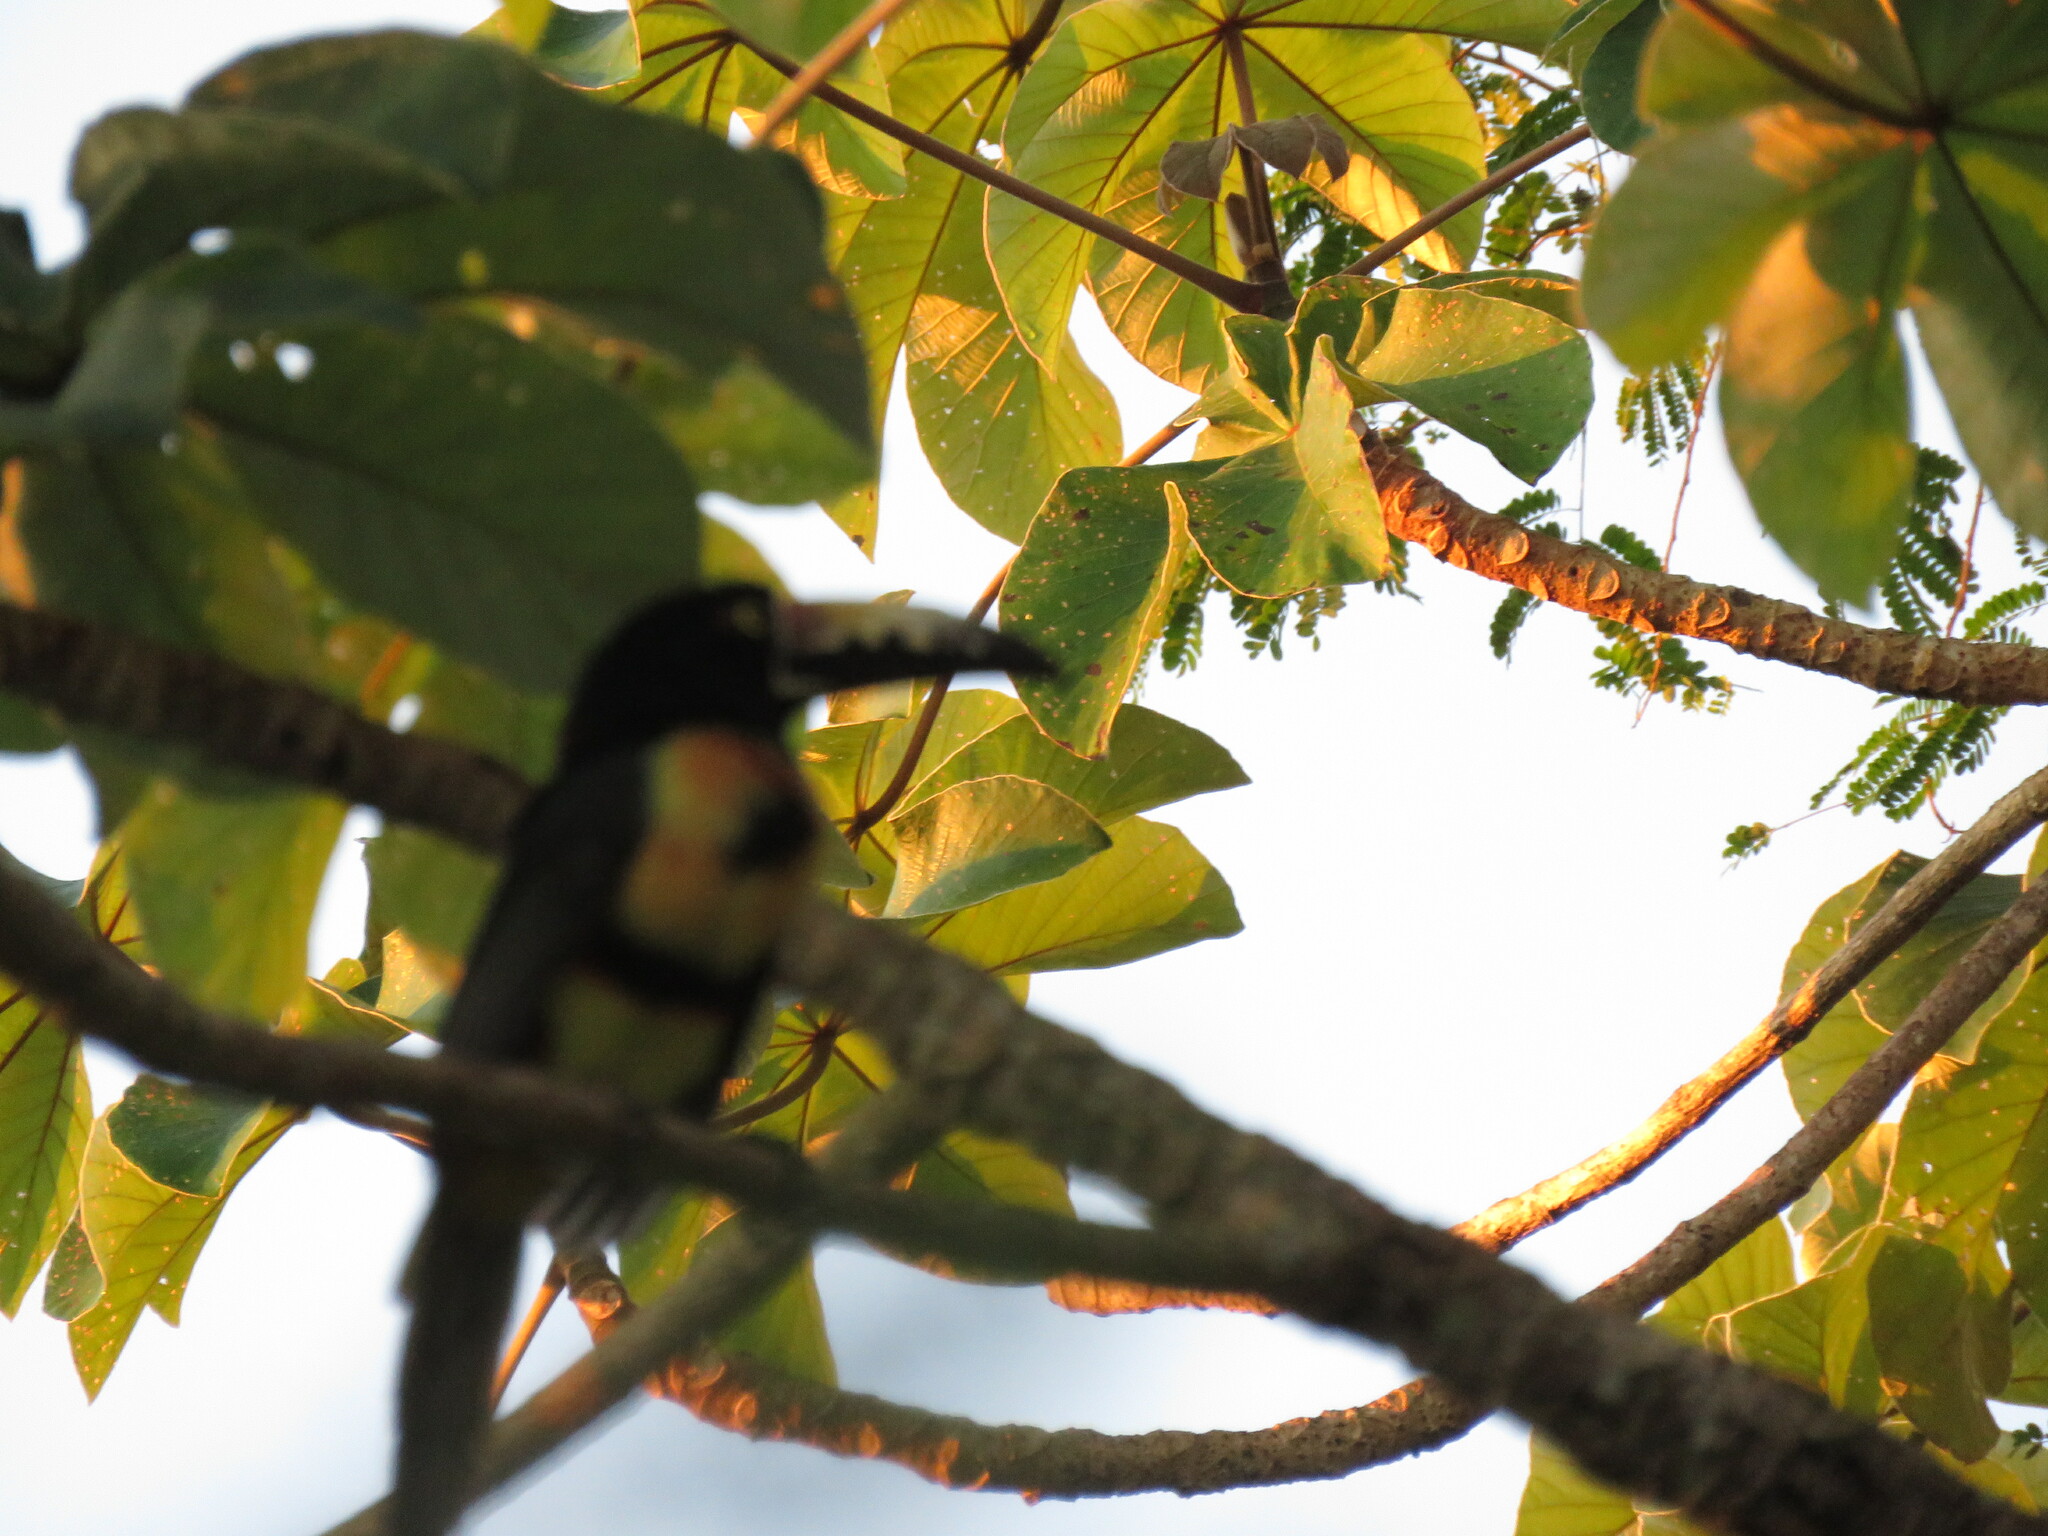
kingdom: Animalia
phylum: Chordata
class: Aves
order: Piciformes
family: Ramphastidae
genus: Pteroglossus
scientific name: Pteroglossus torquatus
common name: Collared aracari
